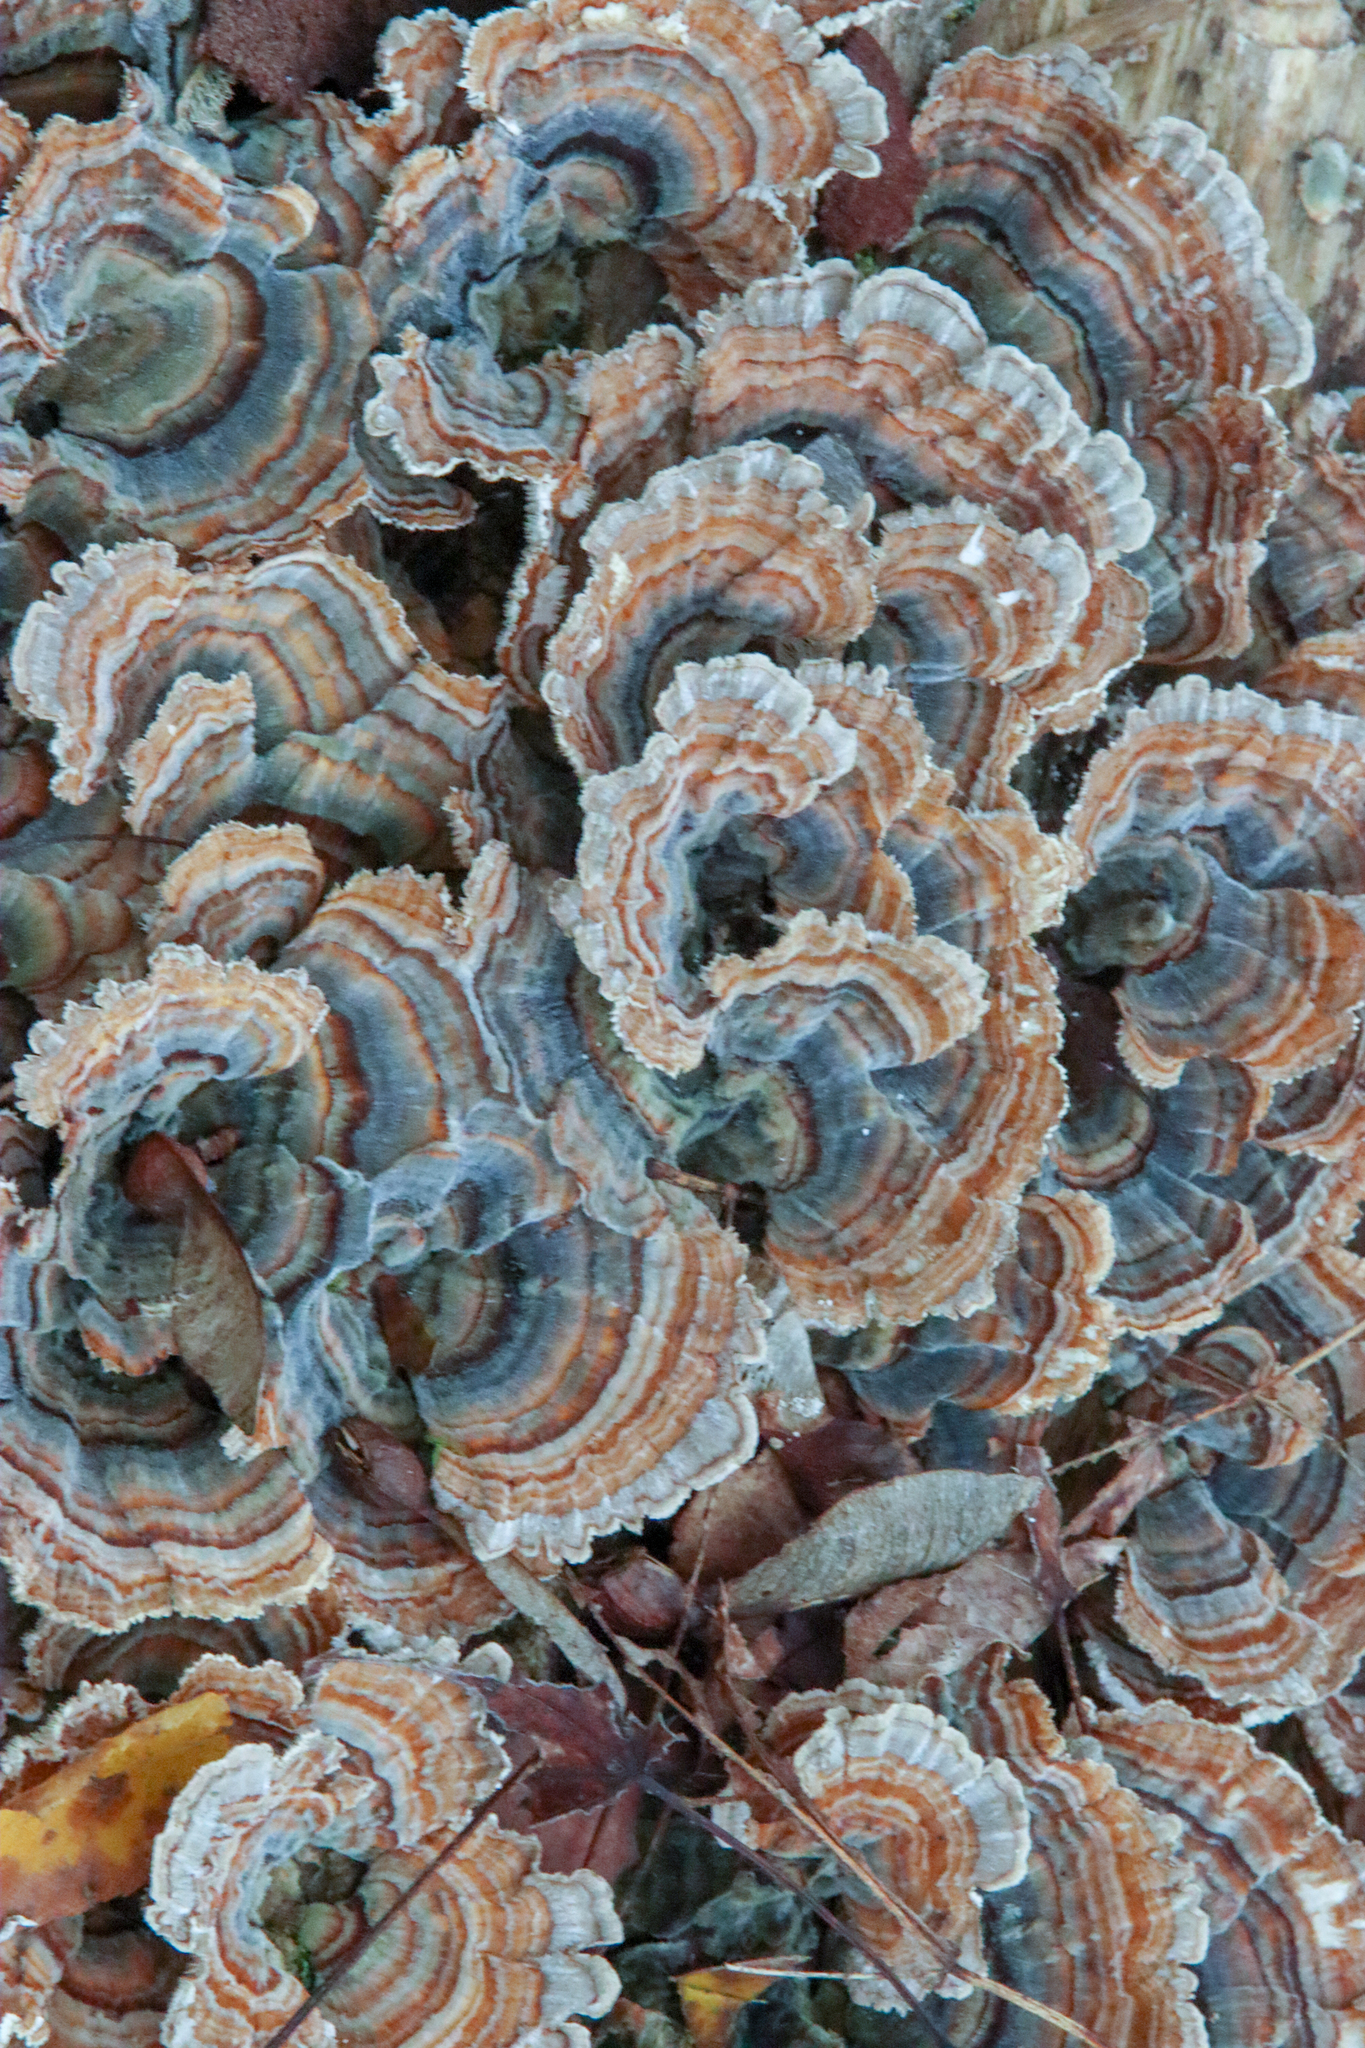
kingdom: Fungi
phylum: Basidiomycota
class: Agaricomycetes
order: Polyporales
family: Polyporaceae
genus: Trametes
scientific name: Trametes versicolor
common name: Turkeytail
